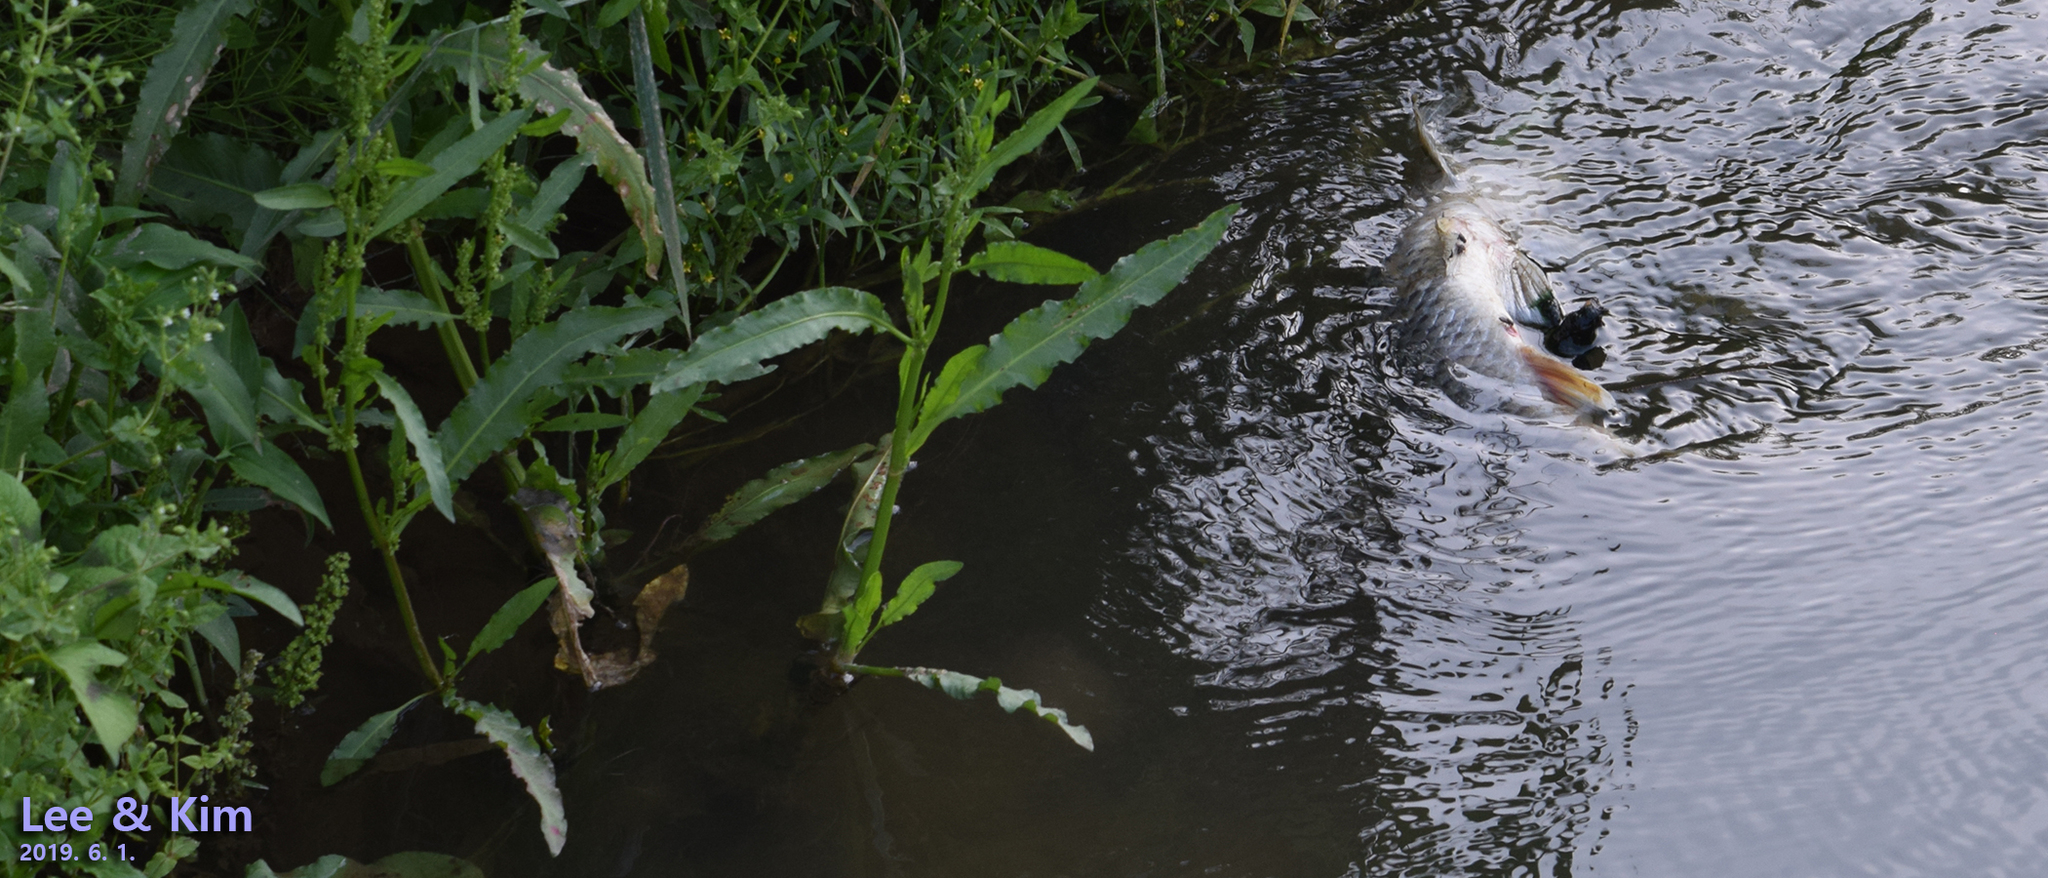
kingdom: Animalia
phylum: Chordata
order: Cypriniformes
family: Cyprinidae
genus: Cyprinus
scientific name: Cyprinus rubrofuscus
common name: Koi
